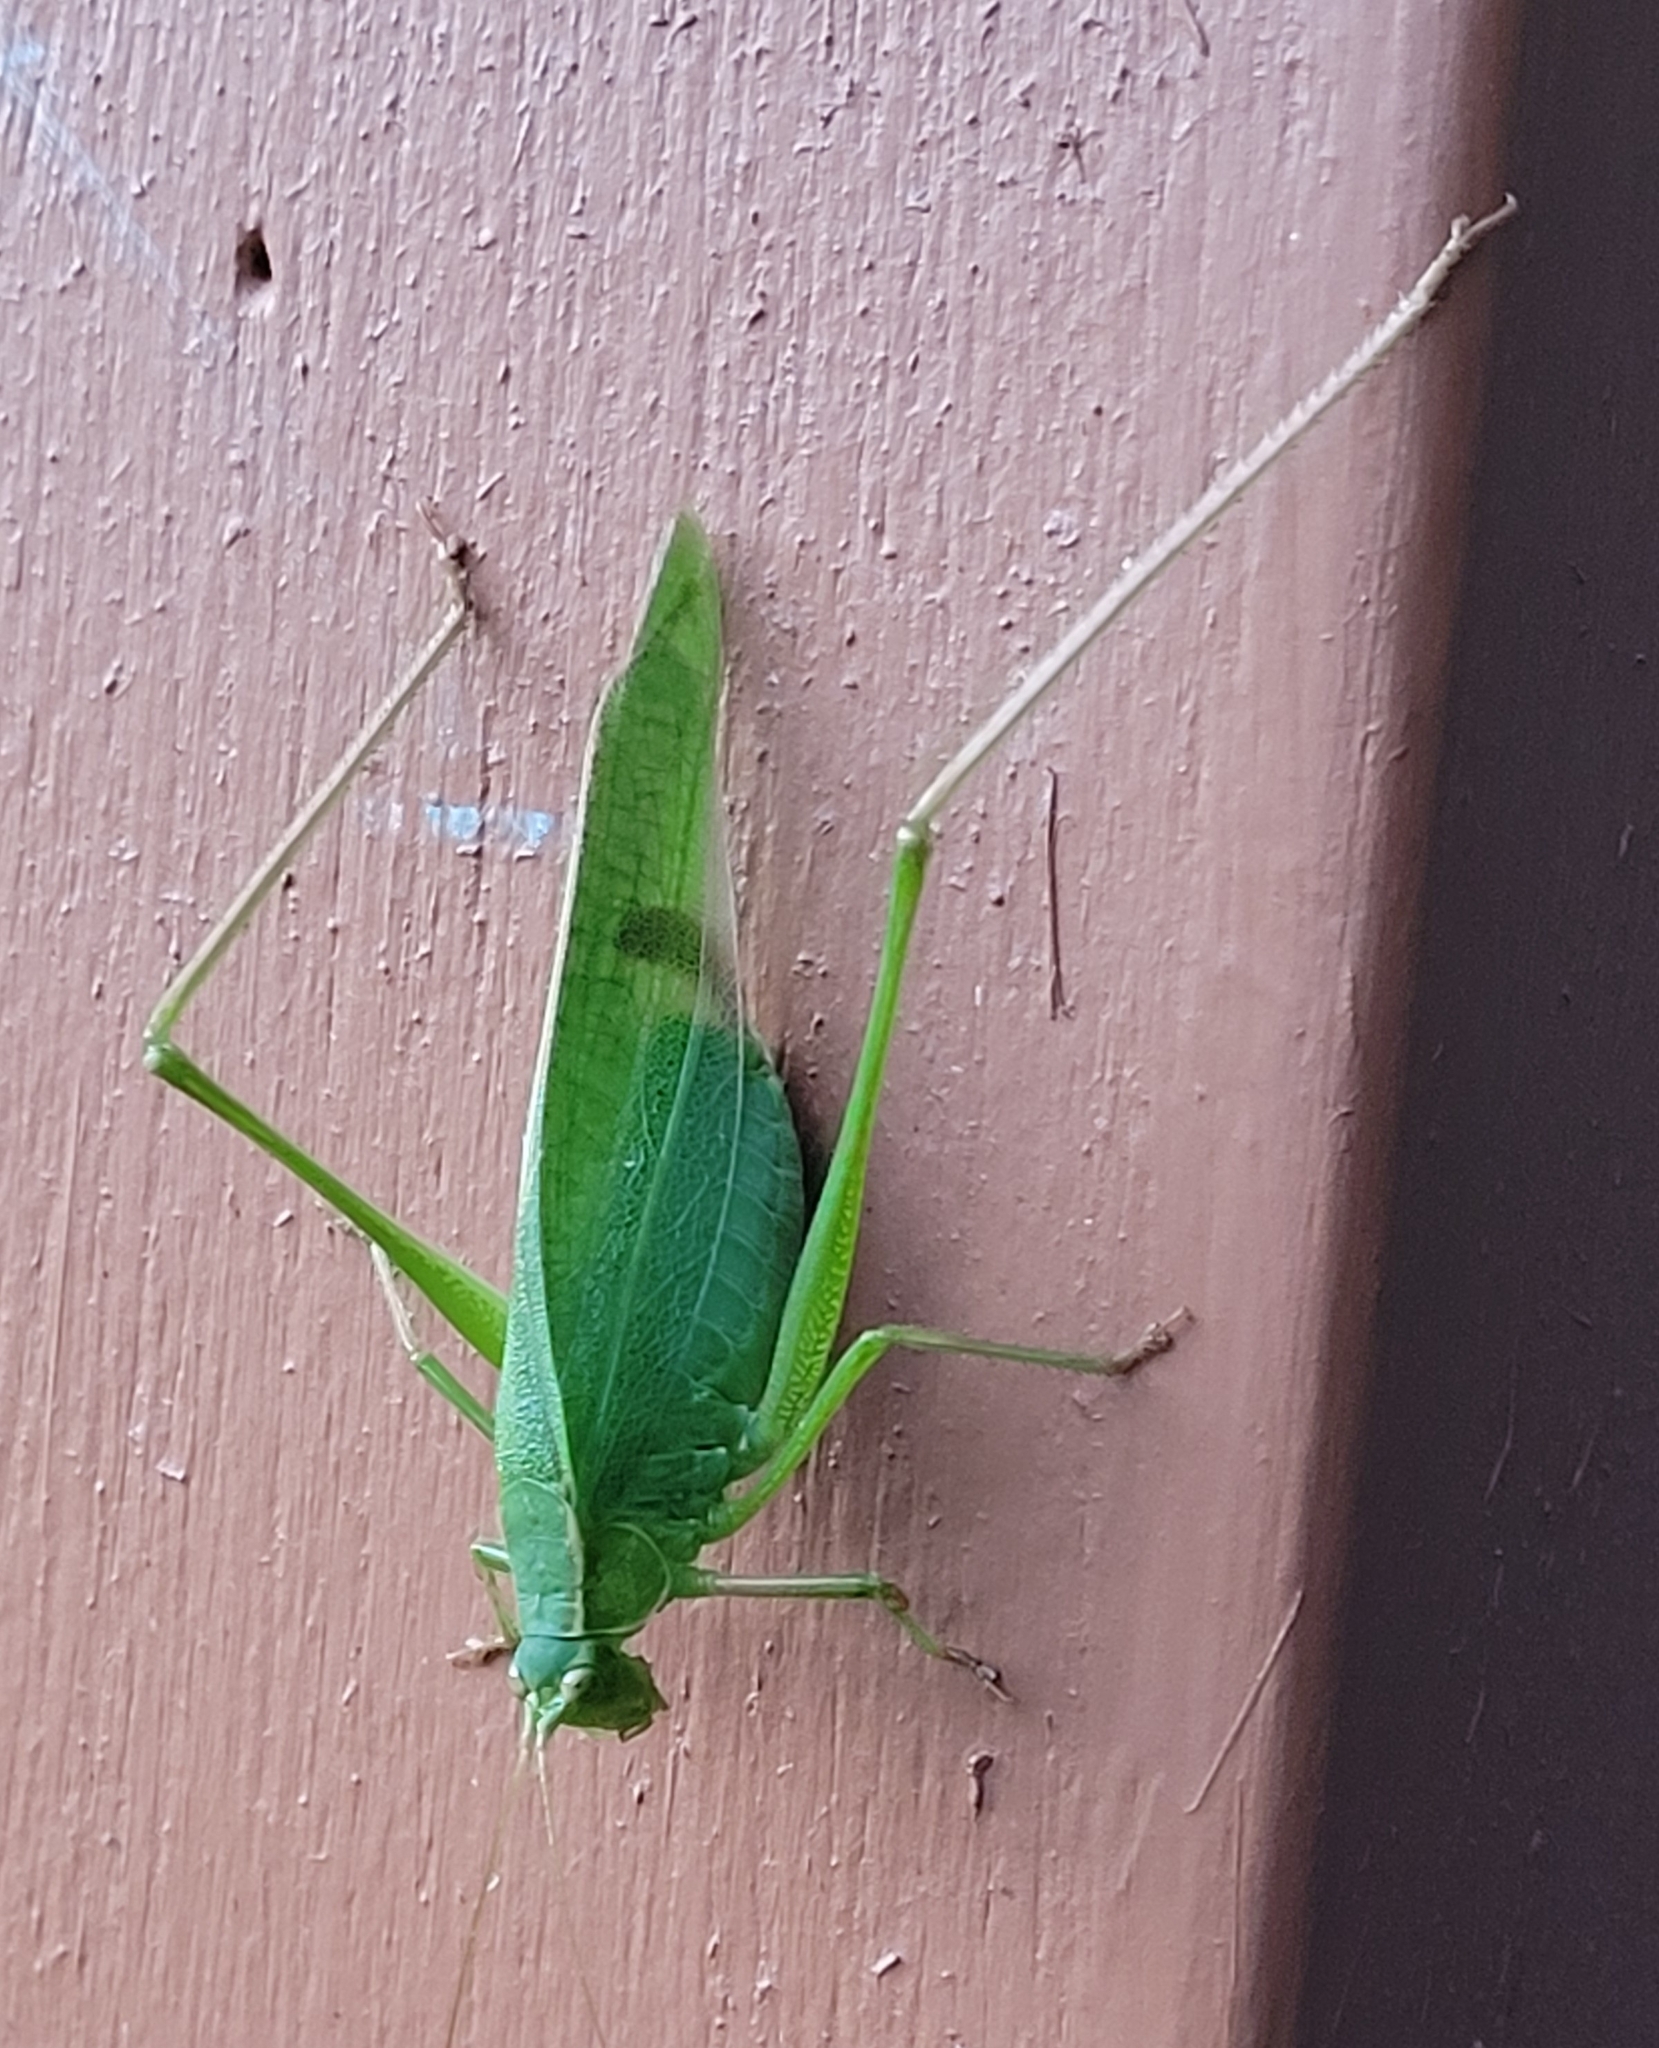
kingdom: Animalia
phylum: Arthropoda
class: Insecta
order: Orthoptera
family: Tettigoniidae
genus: Scudderia
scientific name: Scudderia furcata
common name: Fork-tailed bush katydid
